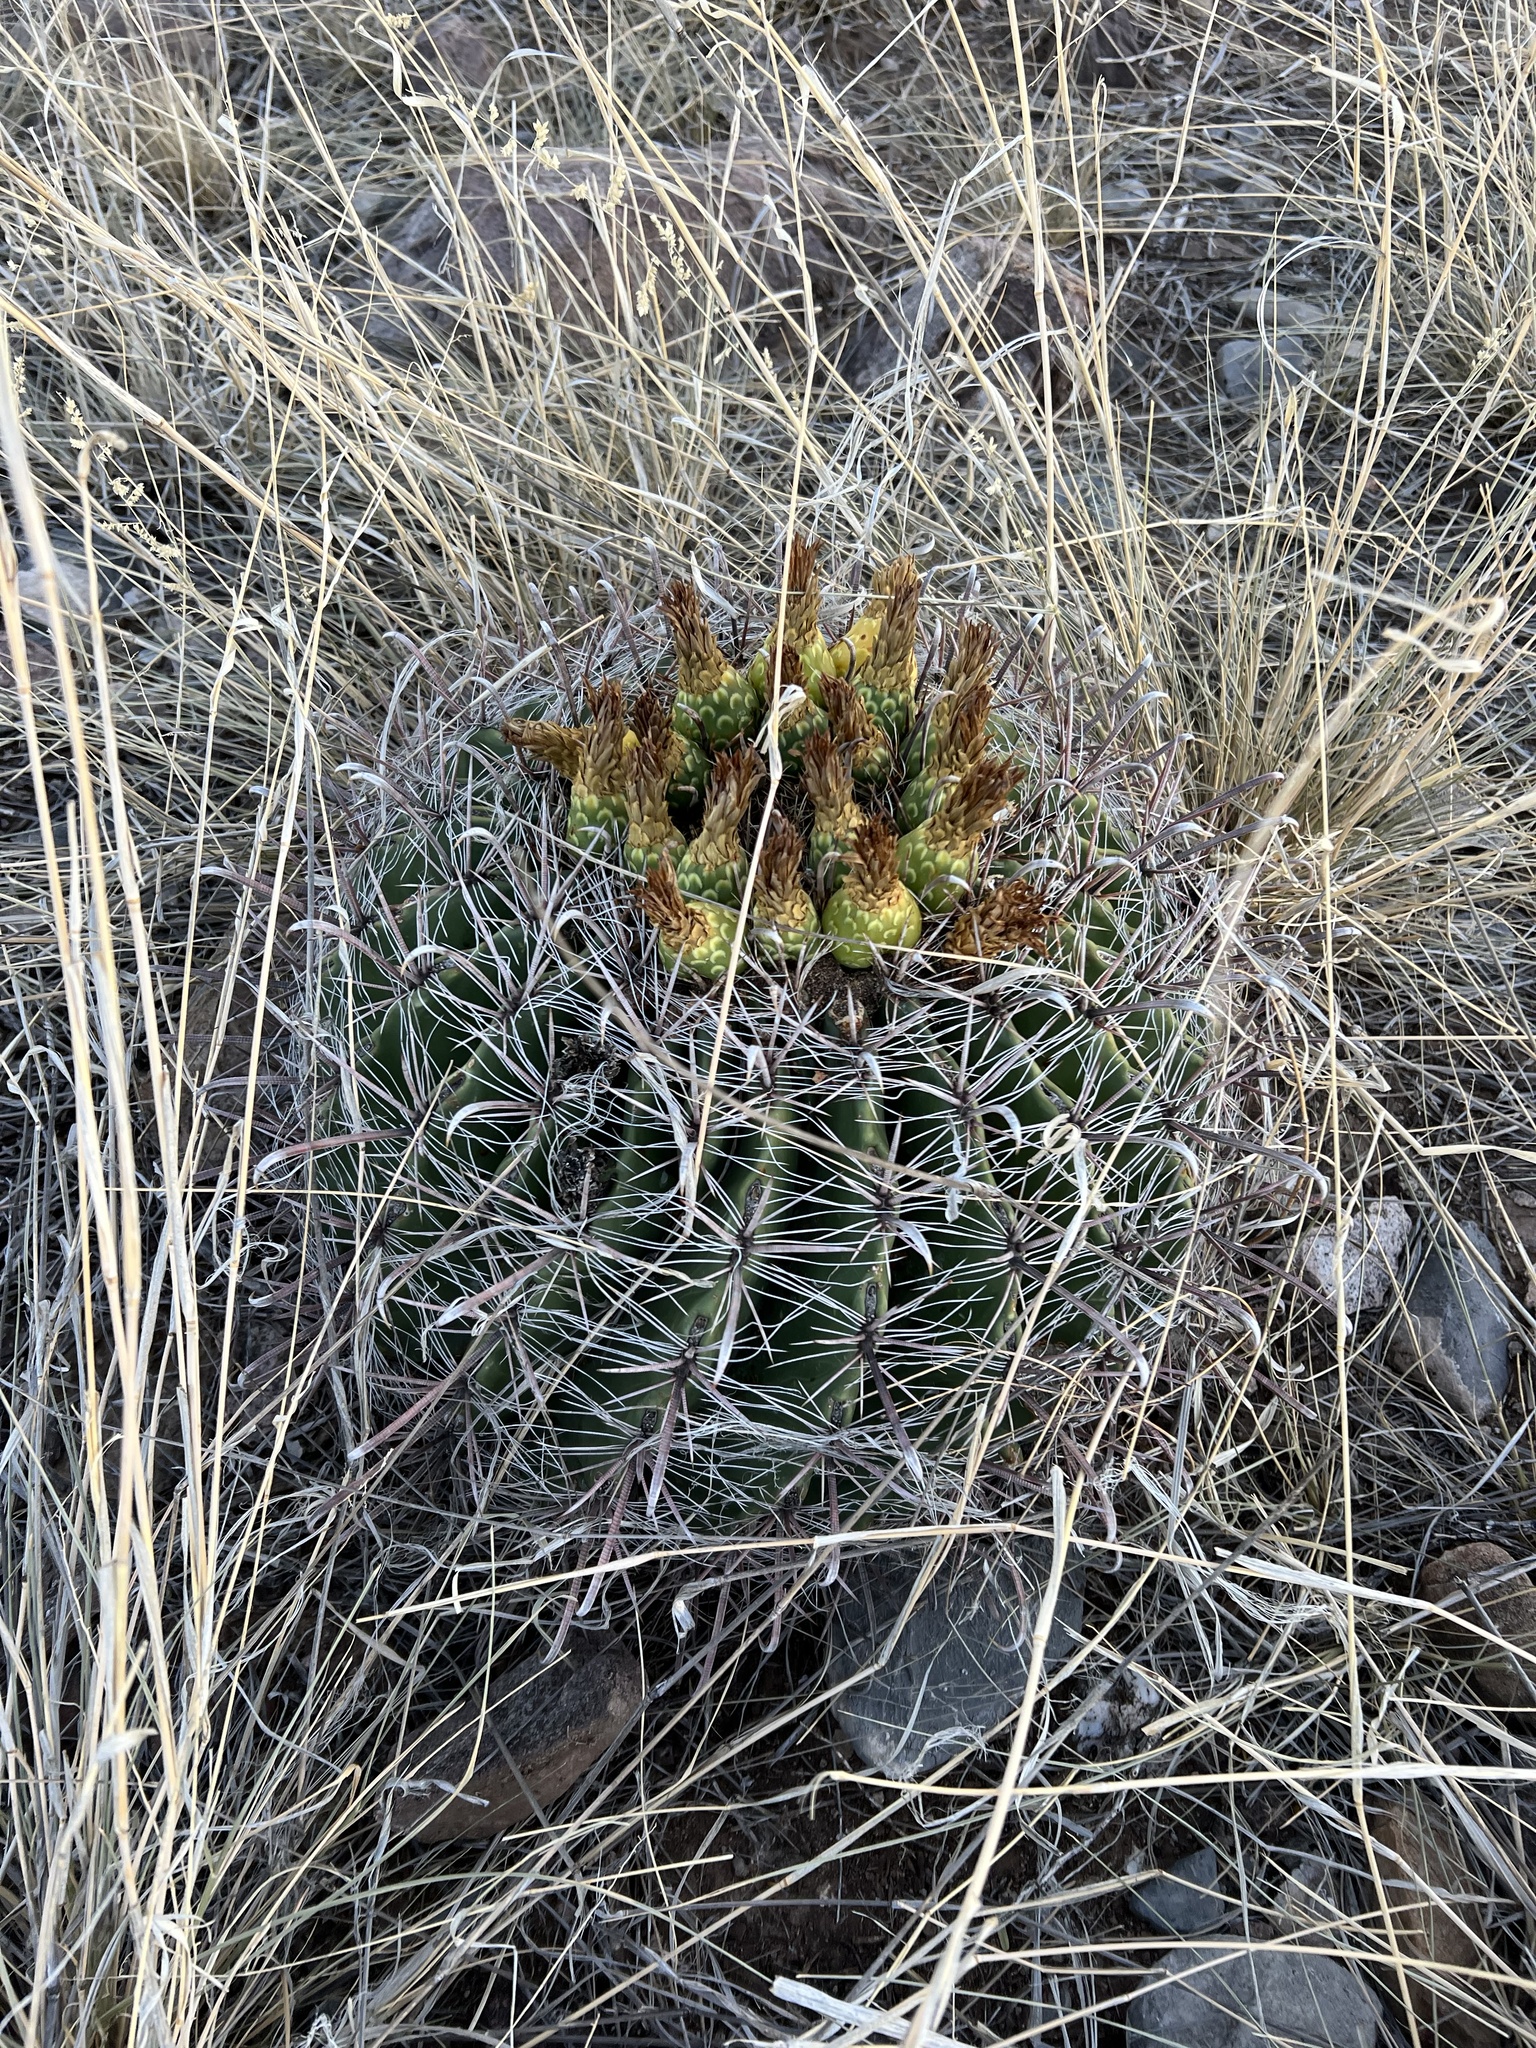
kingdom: Plantae
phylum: Tracheophyta
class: Magnoliopsida
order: Caryophyllales
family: Cactaceae
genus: Ferocactus
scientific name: Ferocactus wislizeni
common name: Candy barrel cactus
